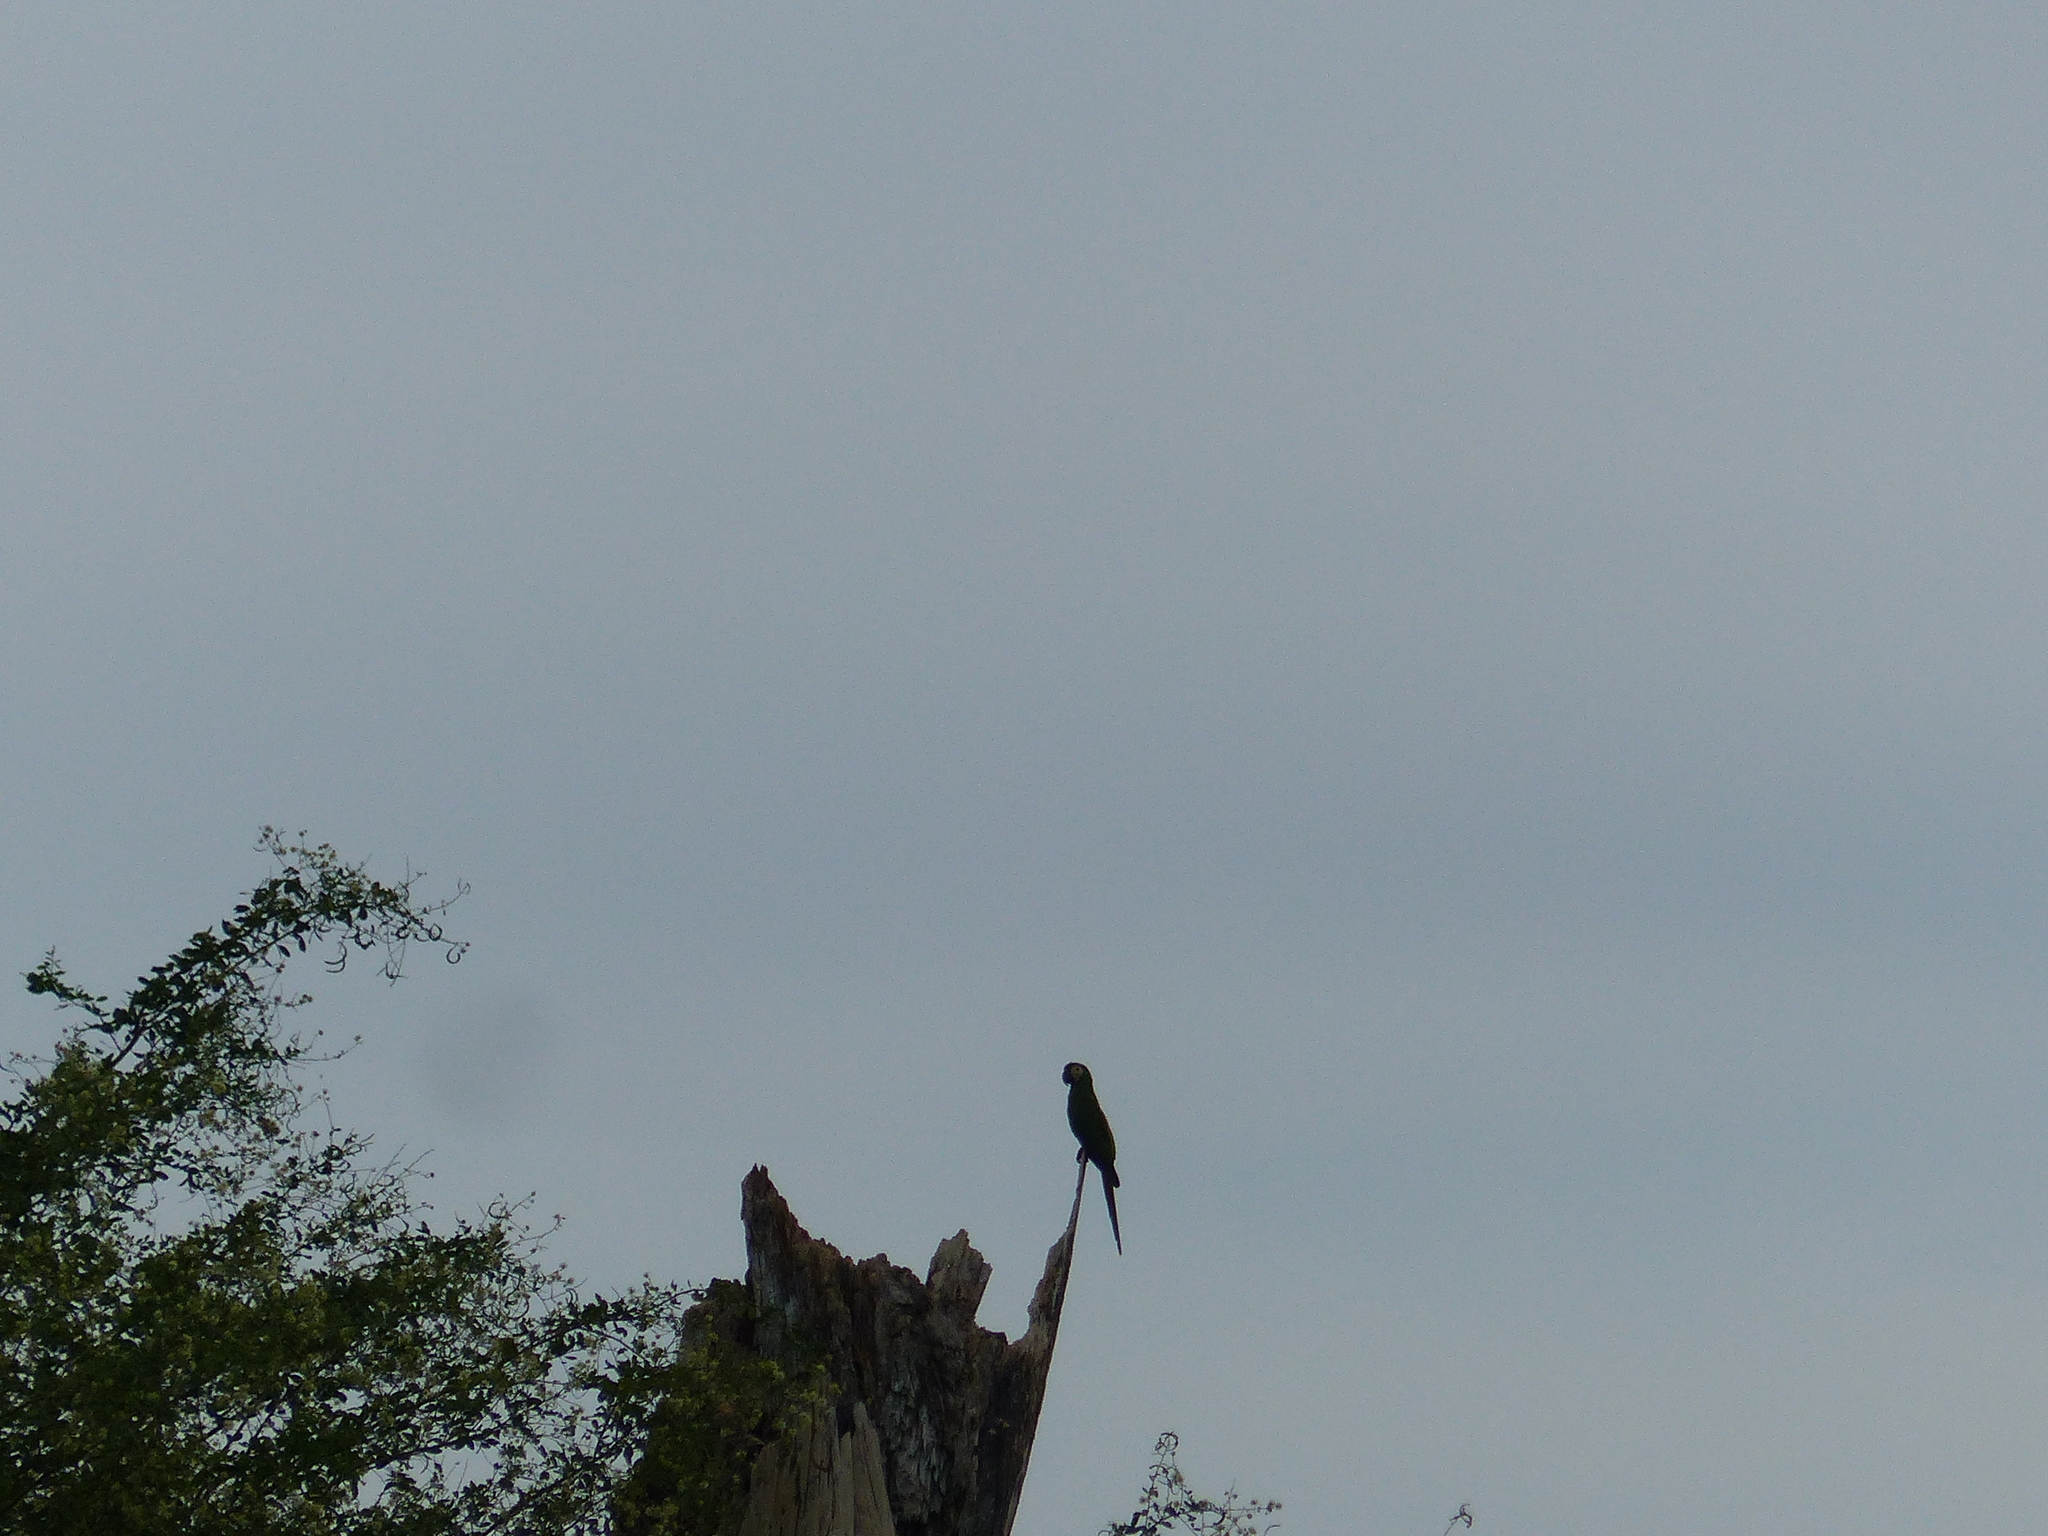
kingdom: Animalia
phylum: Chordata
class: Aves
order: Psittaciformes
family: Psittacidae
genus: Ara
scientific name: Ara severus
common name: Chestnut-fronted macaw
